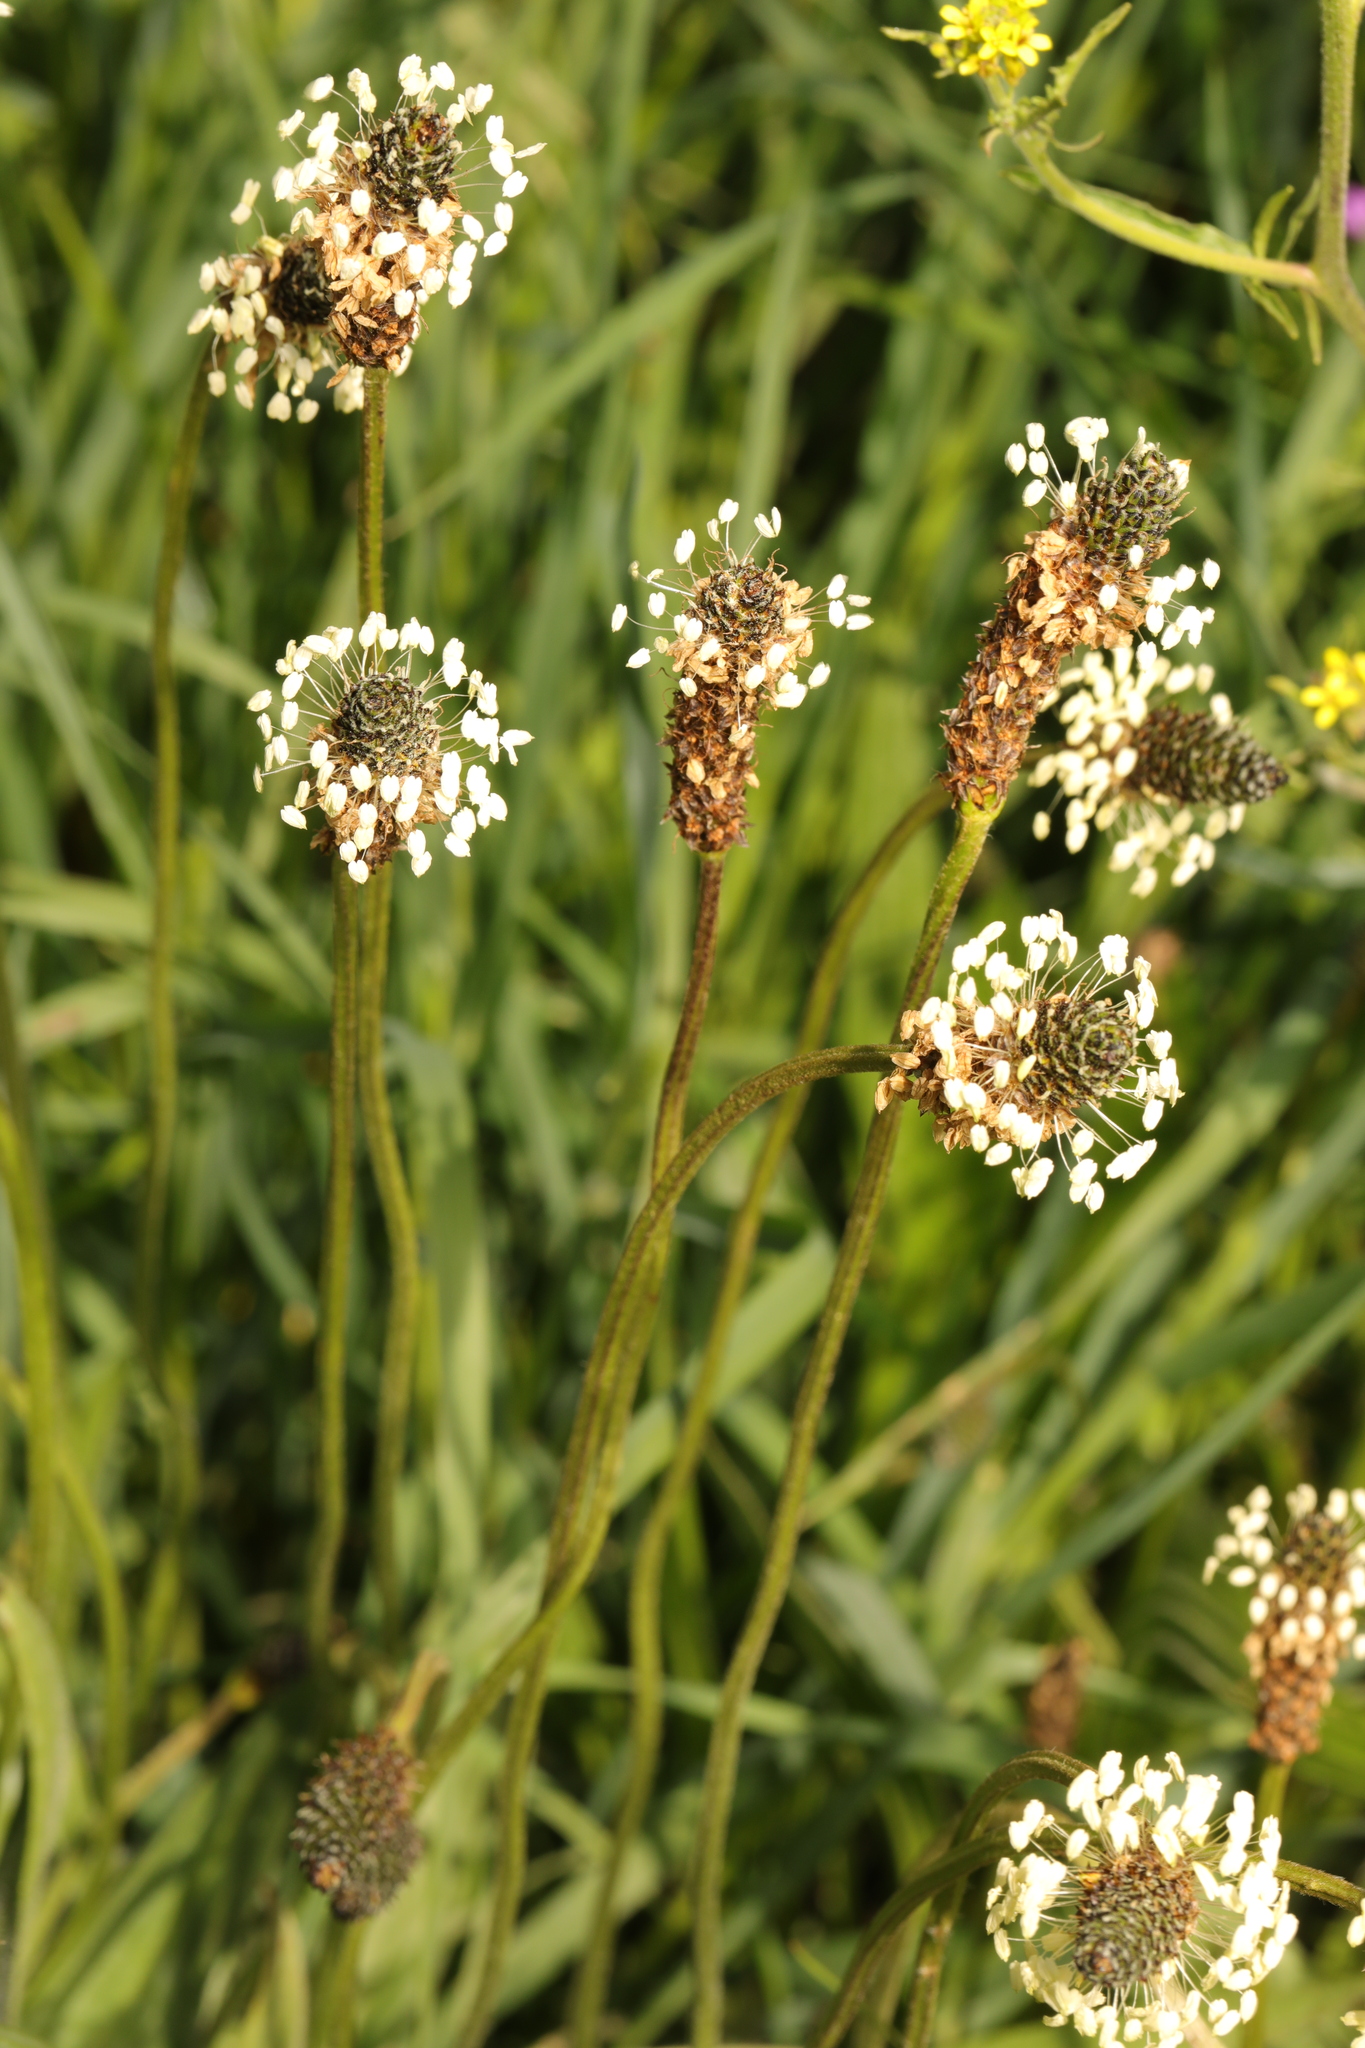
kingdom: Plantae
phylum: Tracheophyta
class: Magnoliopsida
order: Lamiales
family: Plantaginaceae
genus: Plantago
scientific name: Plantago lanceolata
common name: Ribwort plantain
